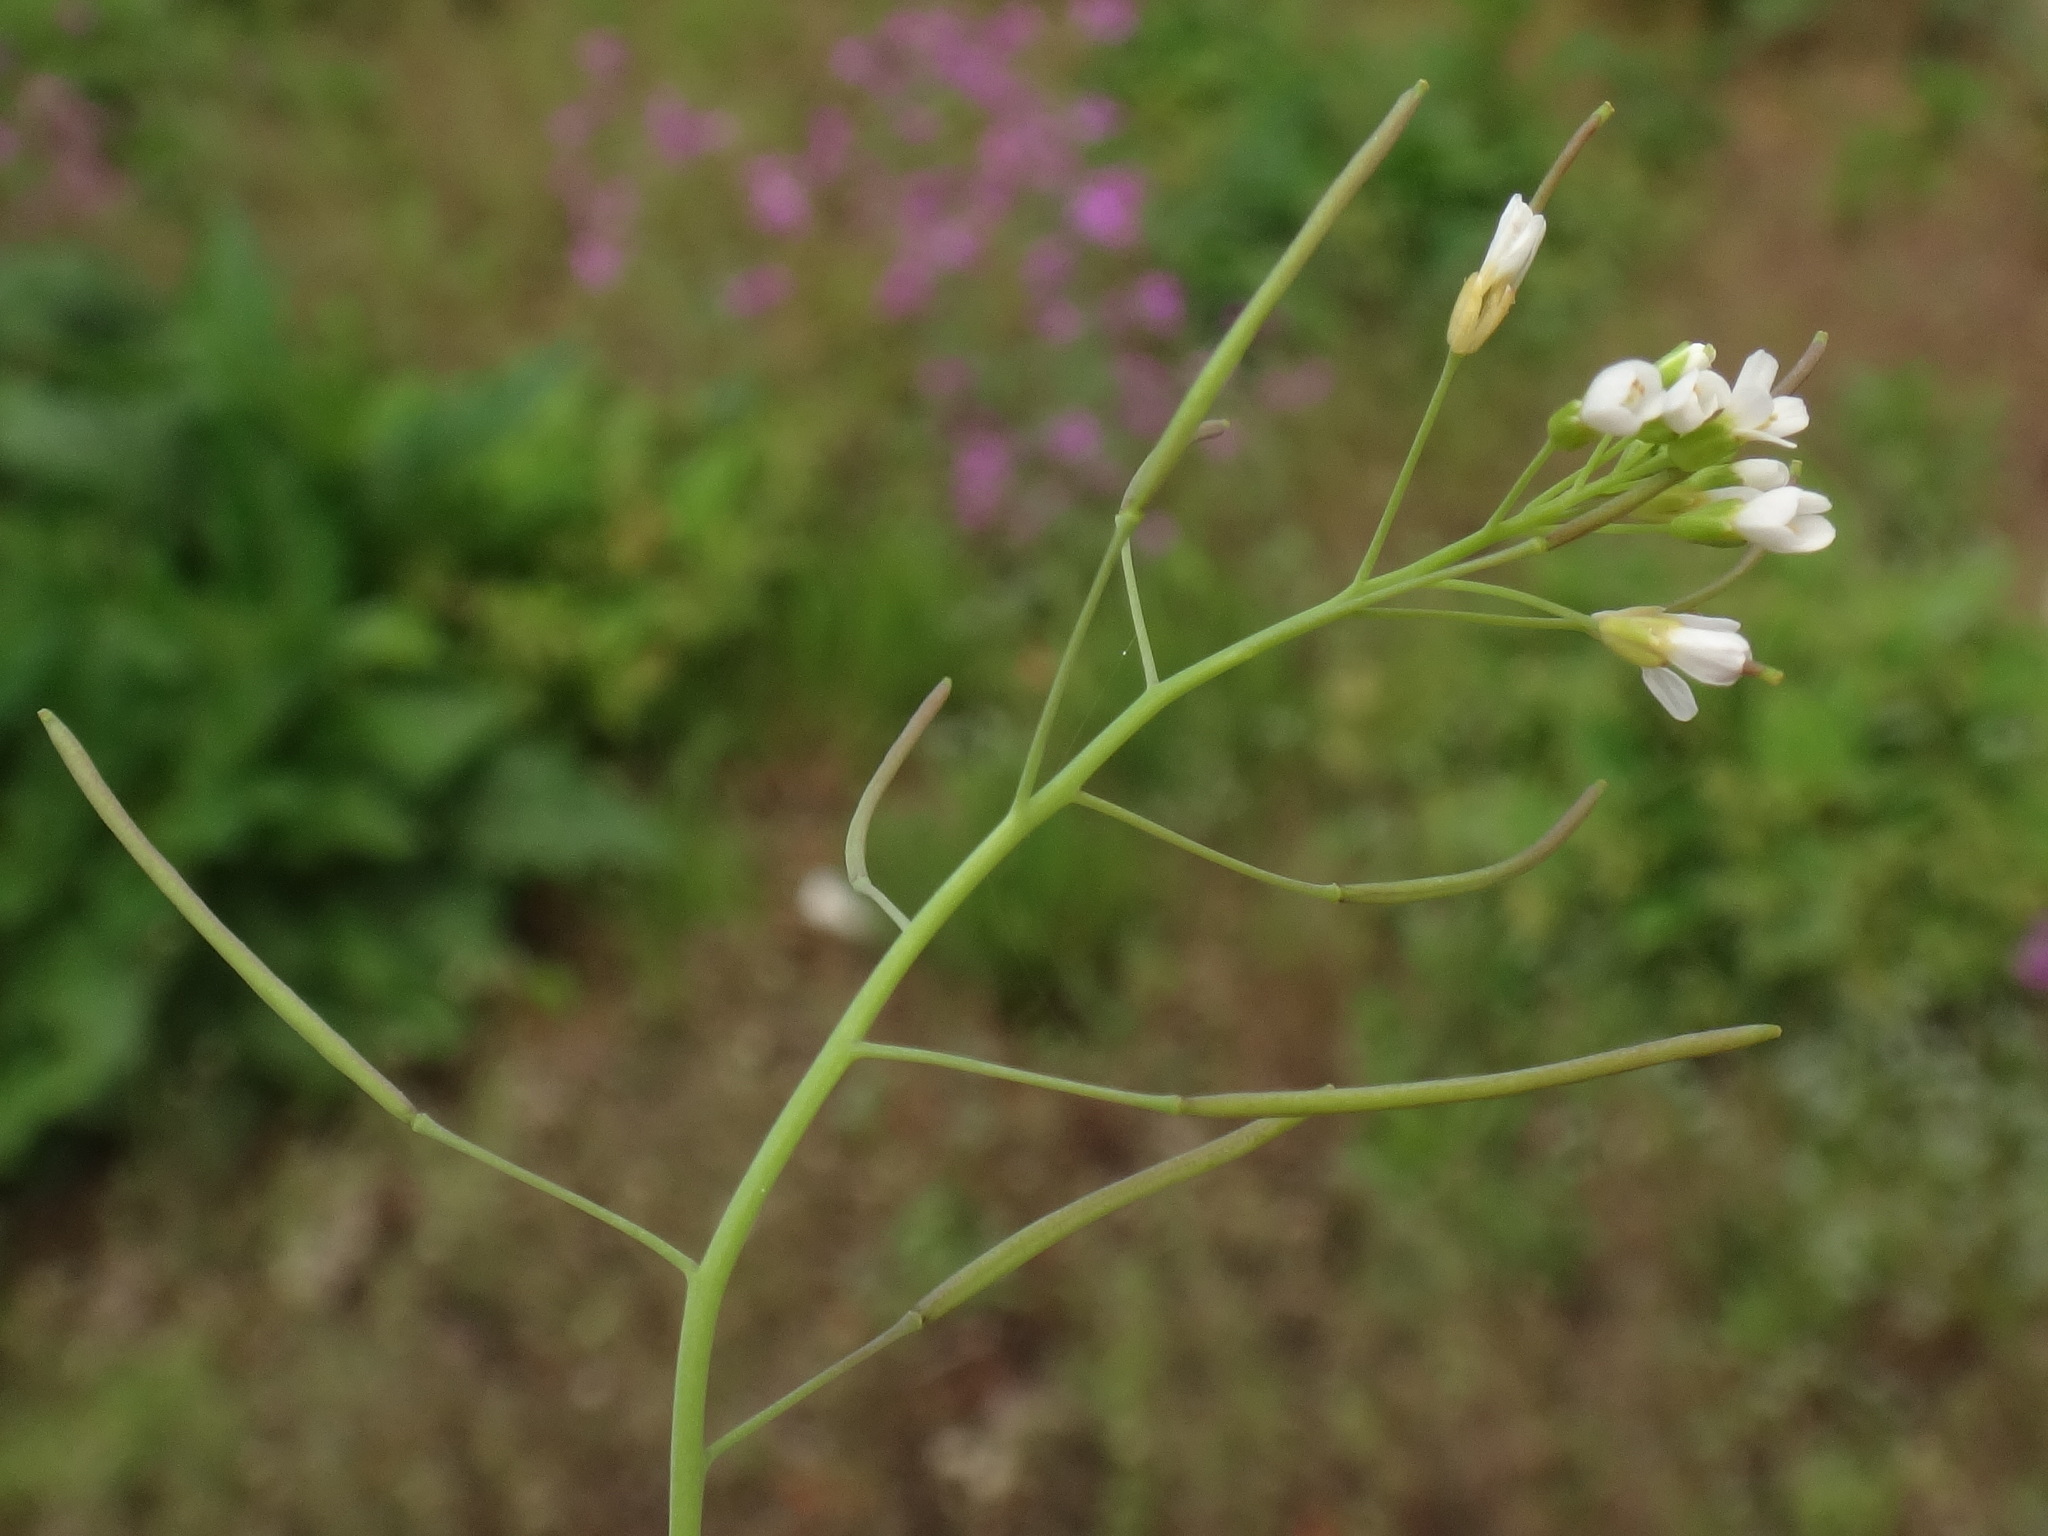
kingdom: Plantae
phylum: Tracheophyta
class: Magnoliopsida
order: Brassicales
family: Brassicaceae
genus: Arabidopsis
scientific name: Arabidopsis thaliana
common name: Thale cress
